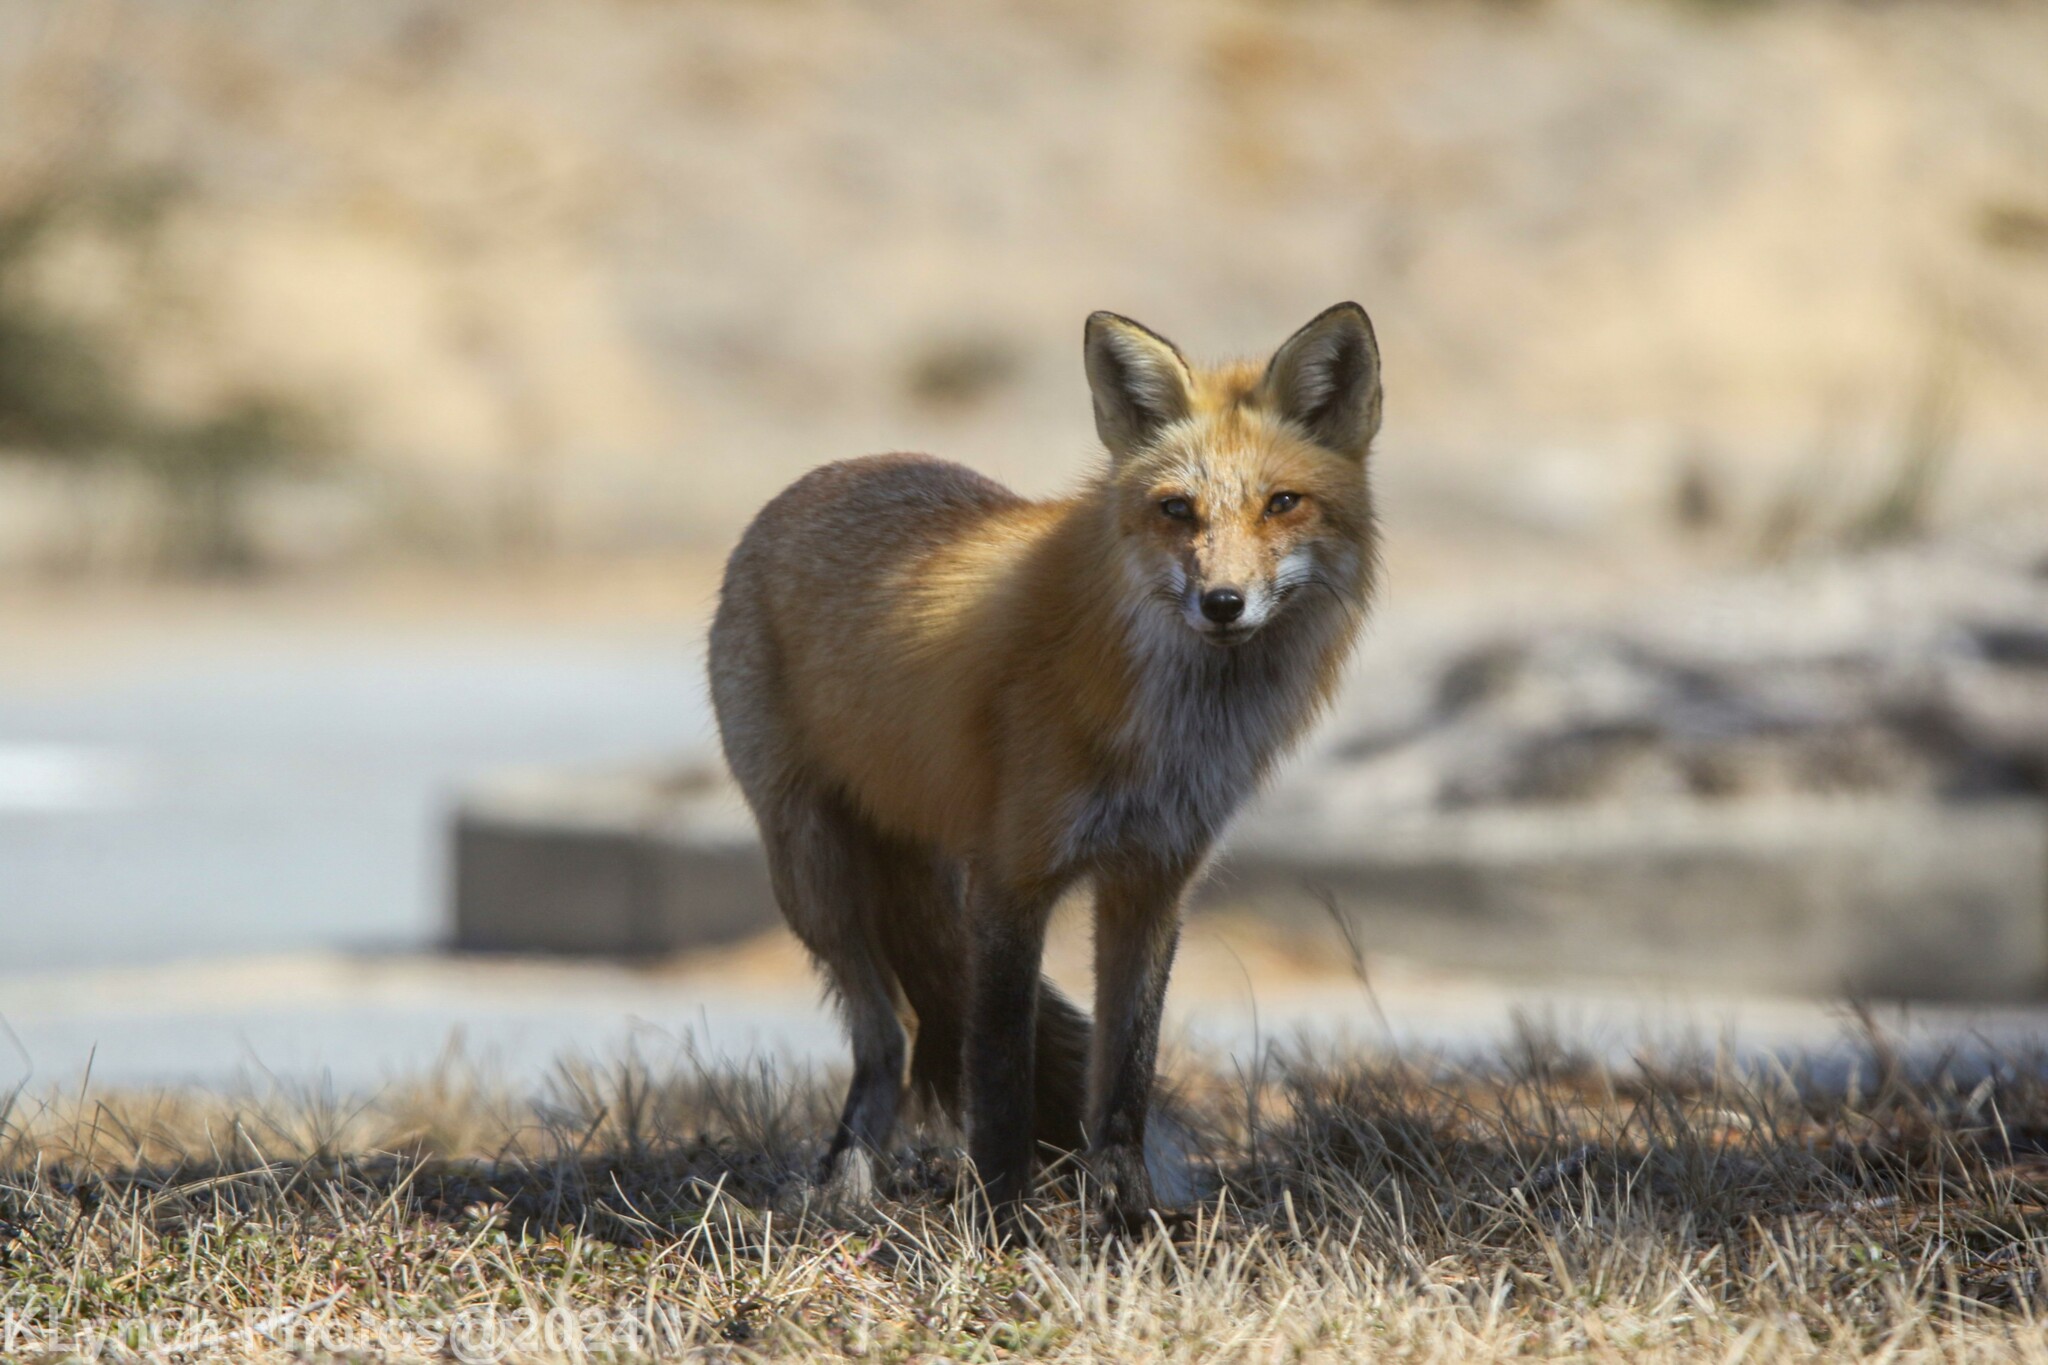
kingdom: Animalia
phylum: Chordata
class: Mammalia
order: Carnivora
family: Canidae
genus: Vulpes
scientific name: Vulpes vulpes
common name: Red fox
